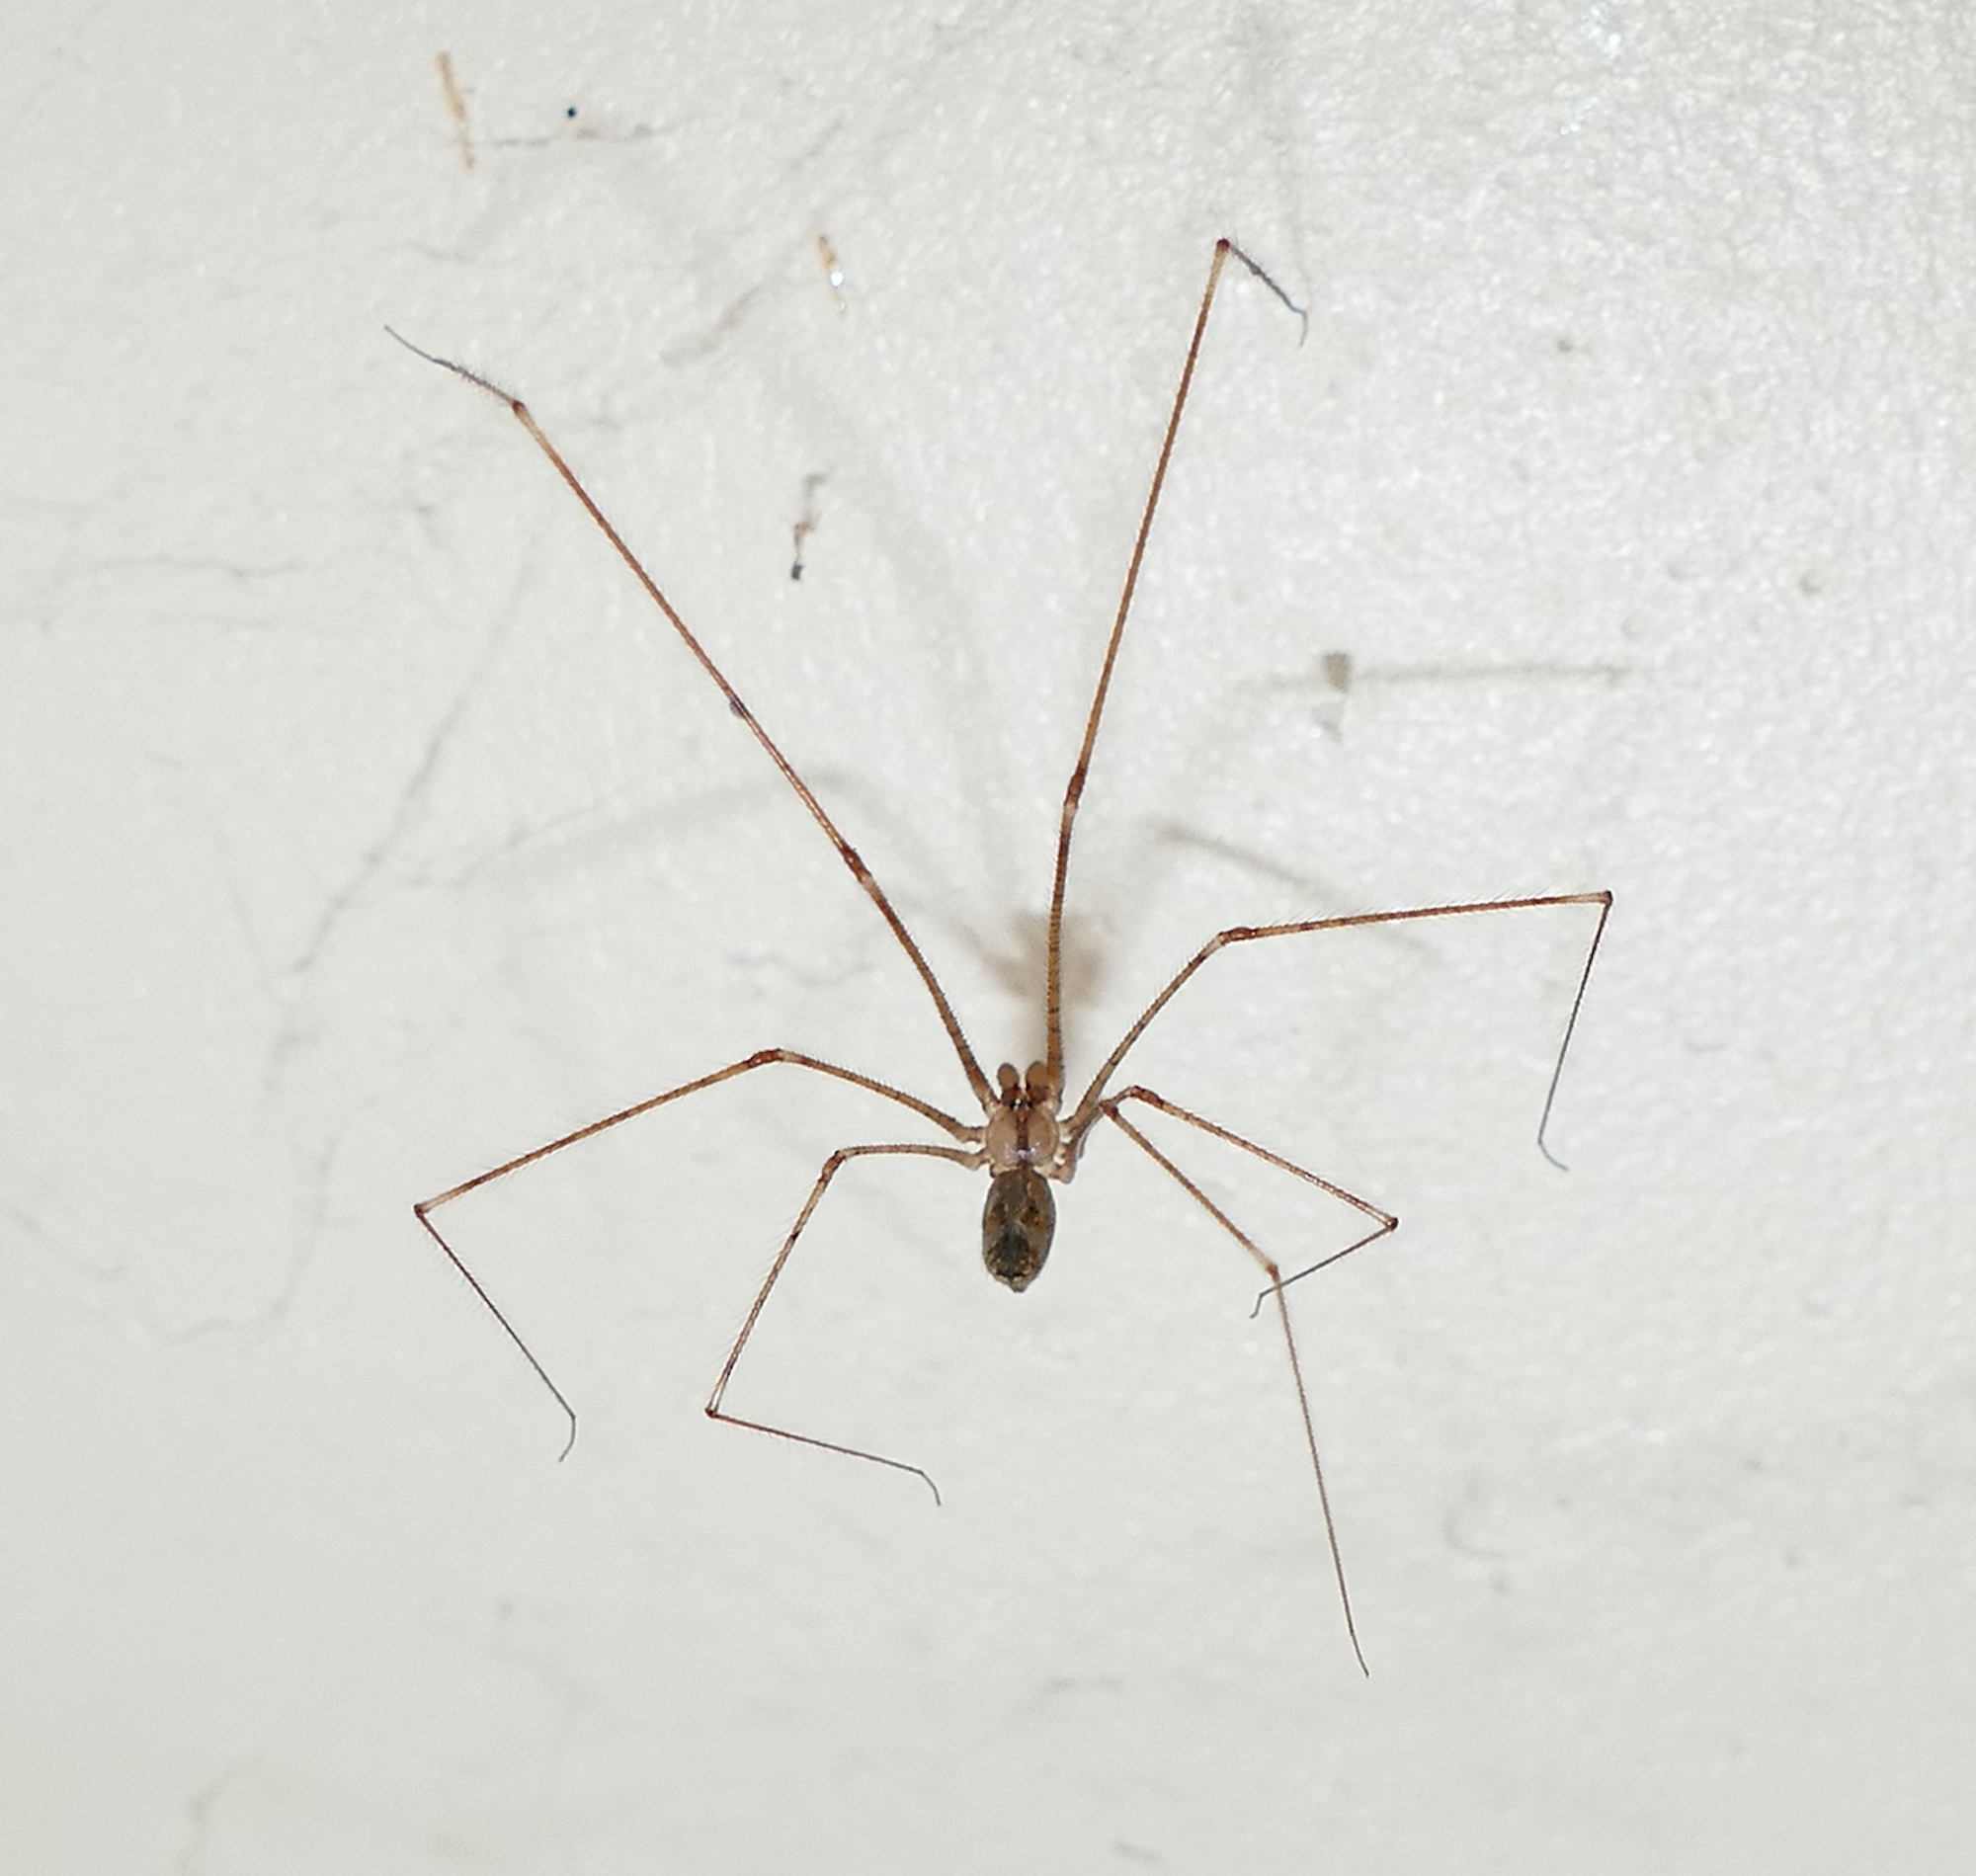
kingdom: Animalia
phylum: Arthropoda
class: Arachnida
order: Araneae
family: Pholcidae
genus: Pholcus
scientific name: Pholcus phalangioides
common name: Longbodied cellar spider
